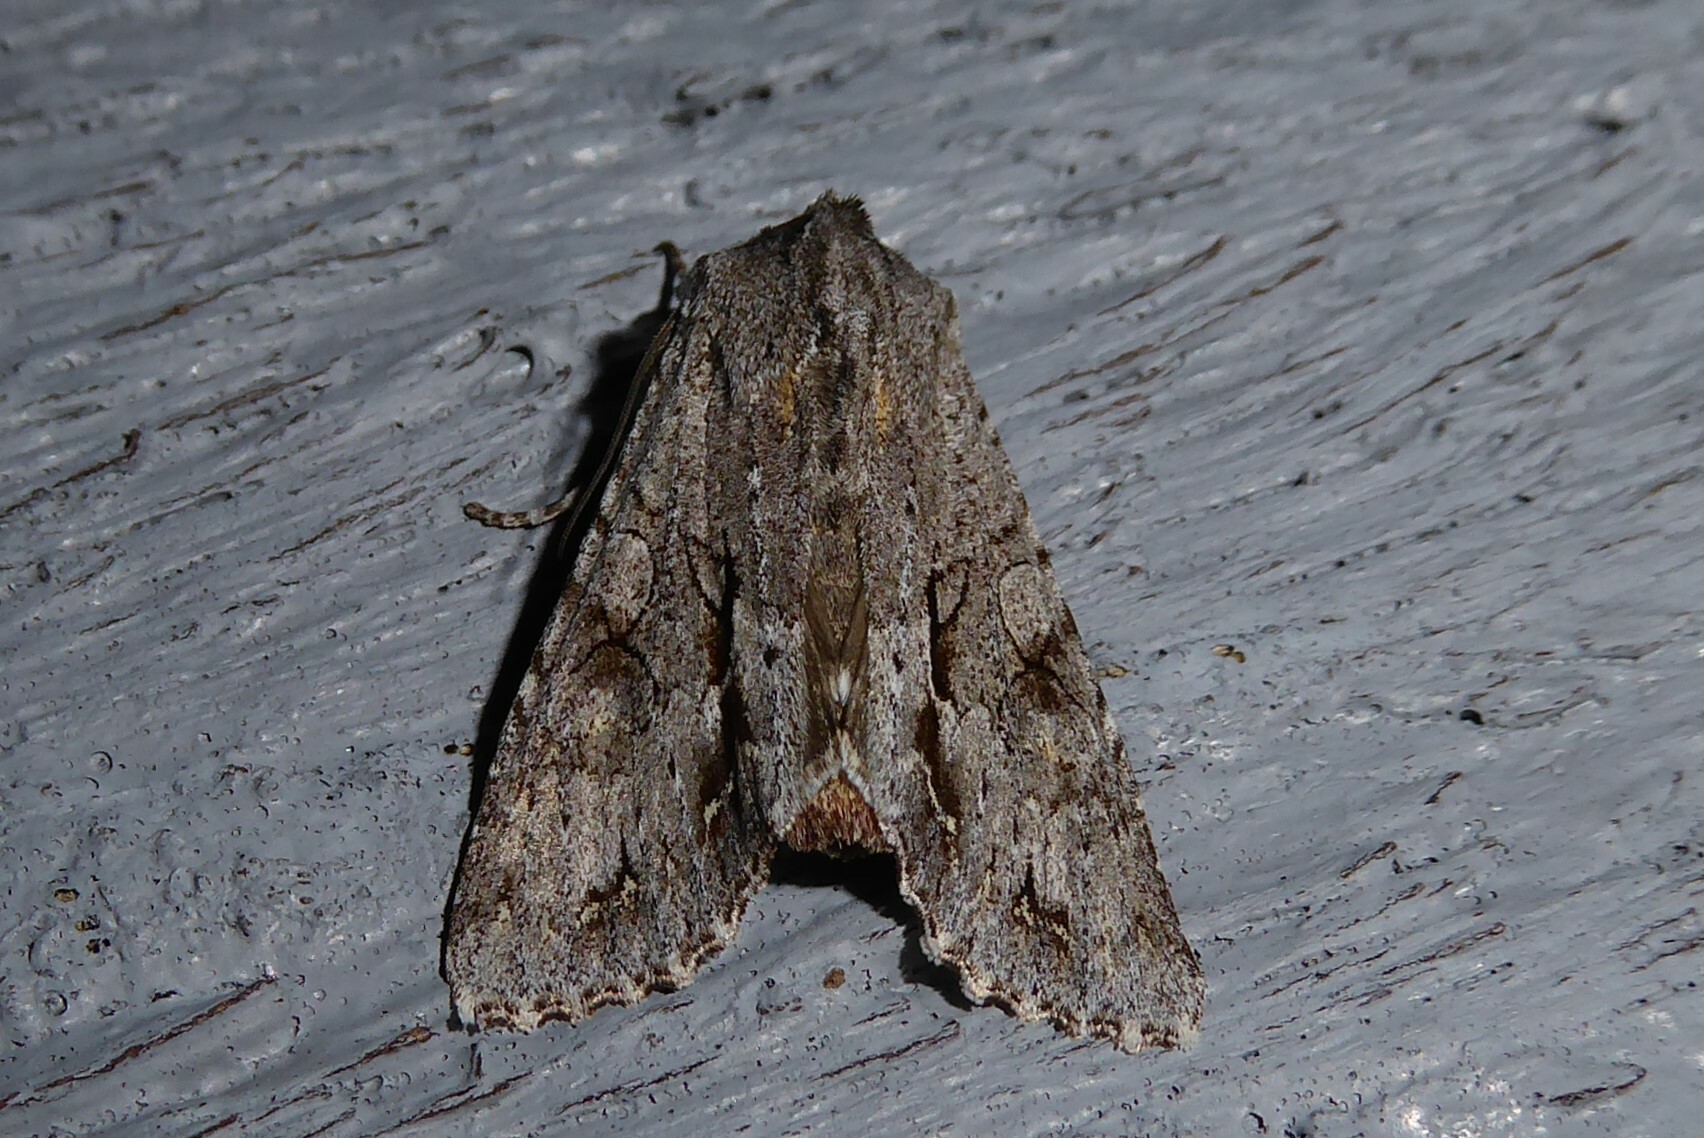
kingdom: Animalia
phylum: Arthropoda
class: Insecta
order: Lepidoptera
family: Noctuidae
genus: Ichneutica
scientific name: Ichneutica
